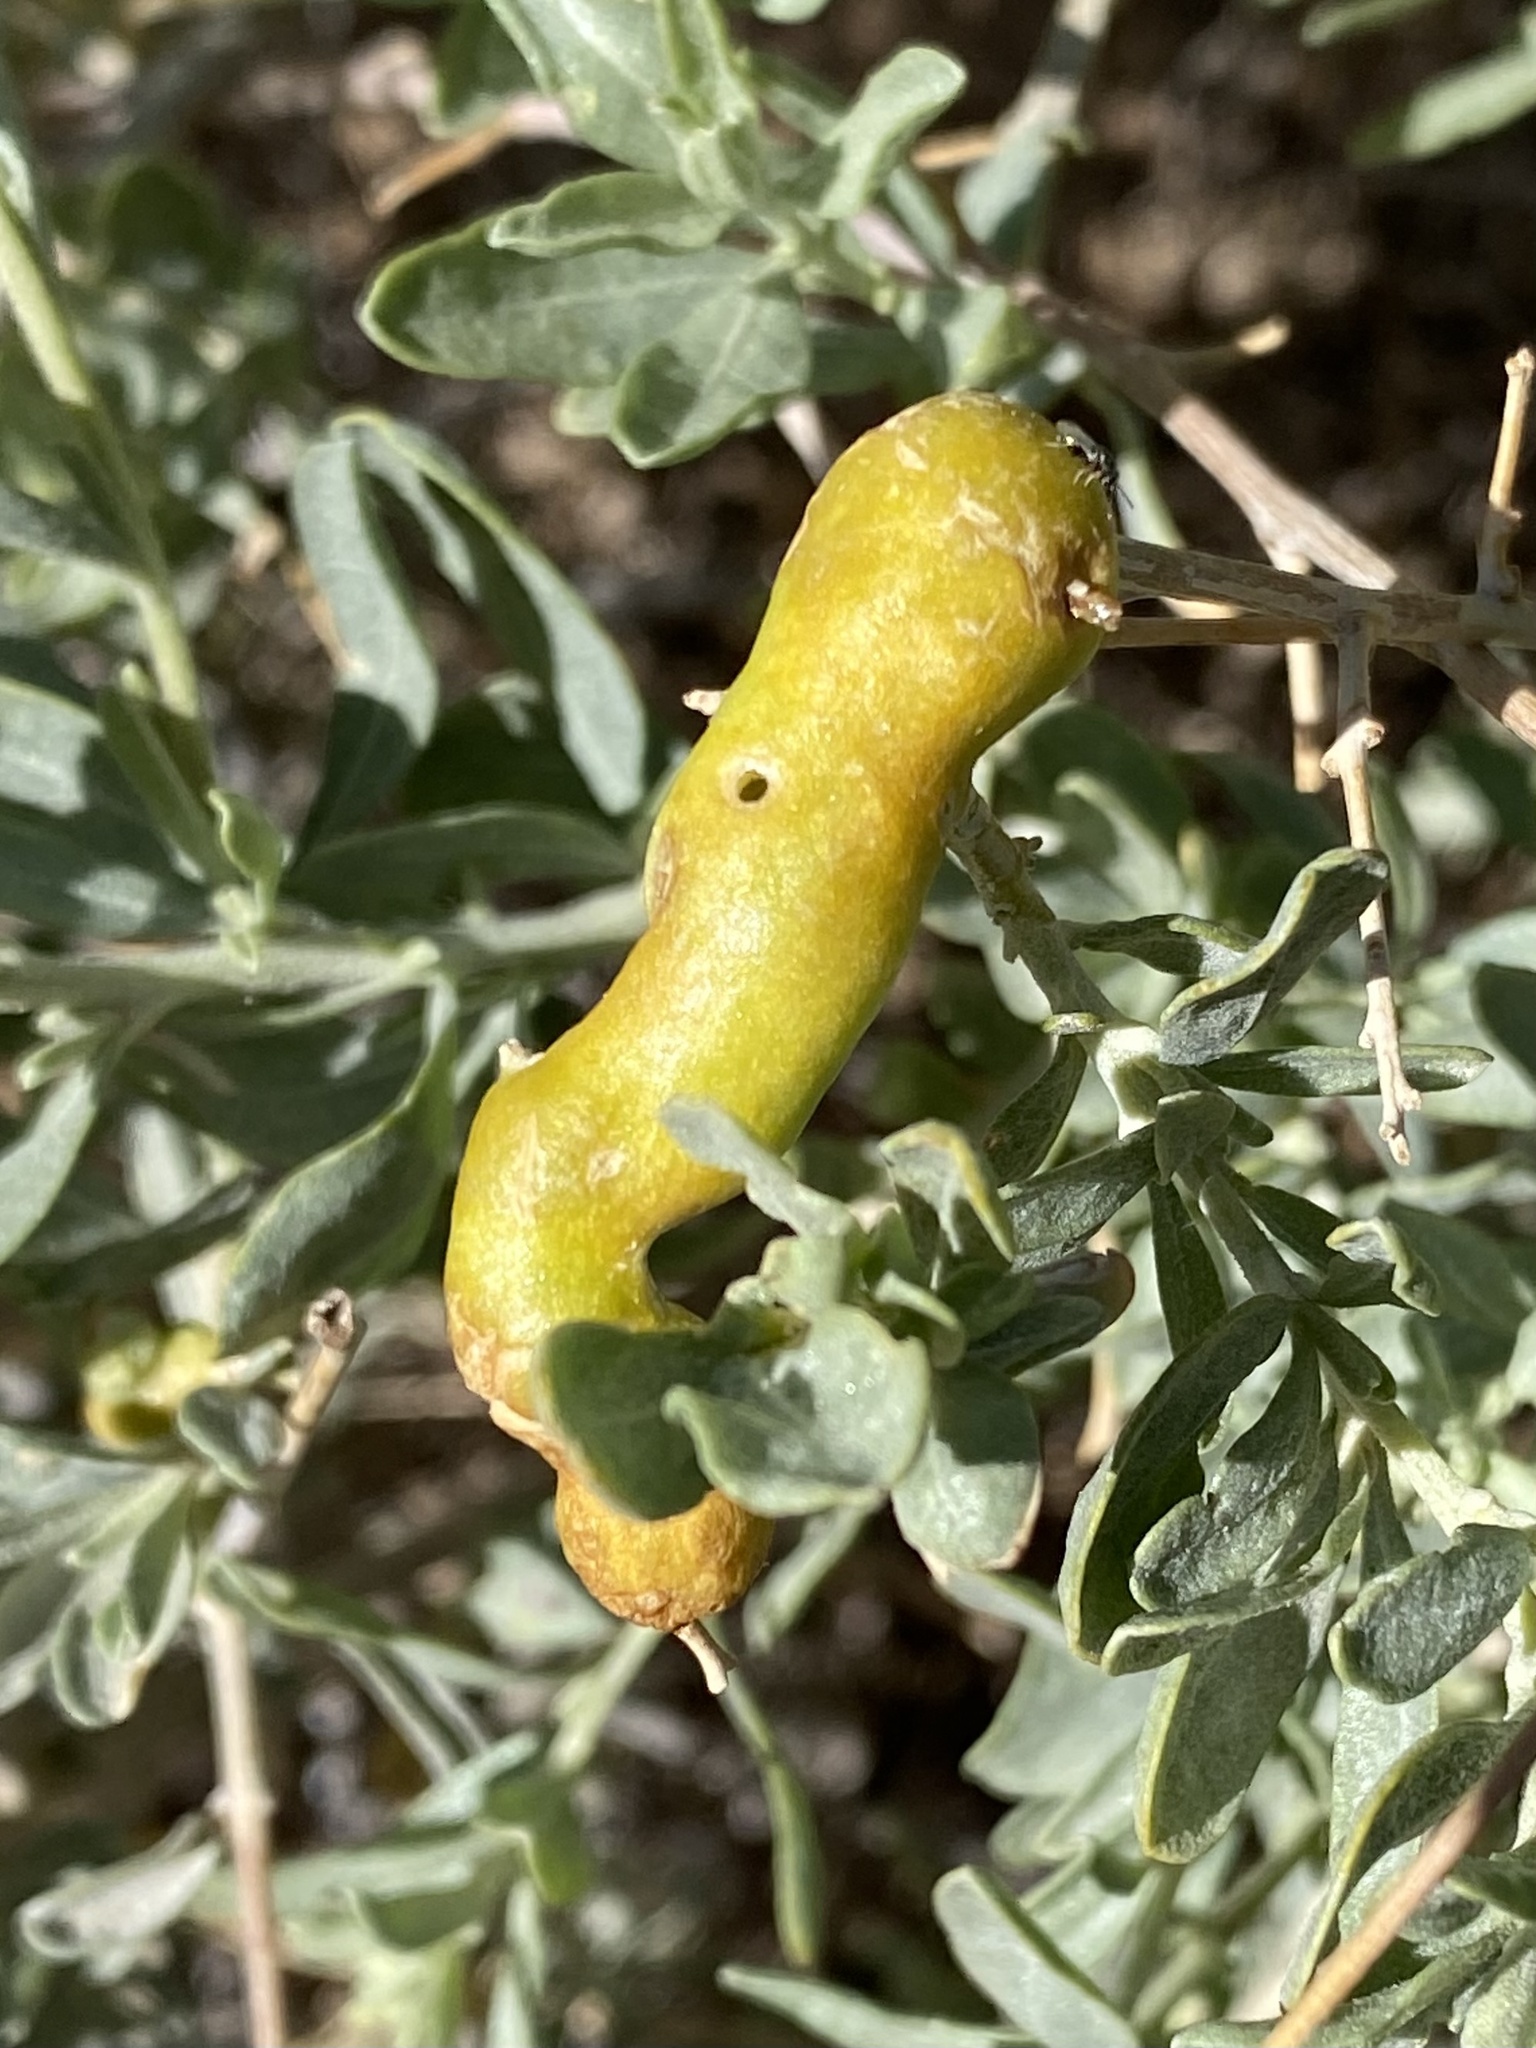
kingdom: Animalia
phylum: Arthropoda
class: Insecta
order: Diptera
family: Cecidomyiidae
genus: Asphondylia
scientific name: Asphondylia atriplicis
